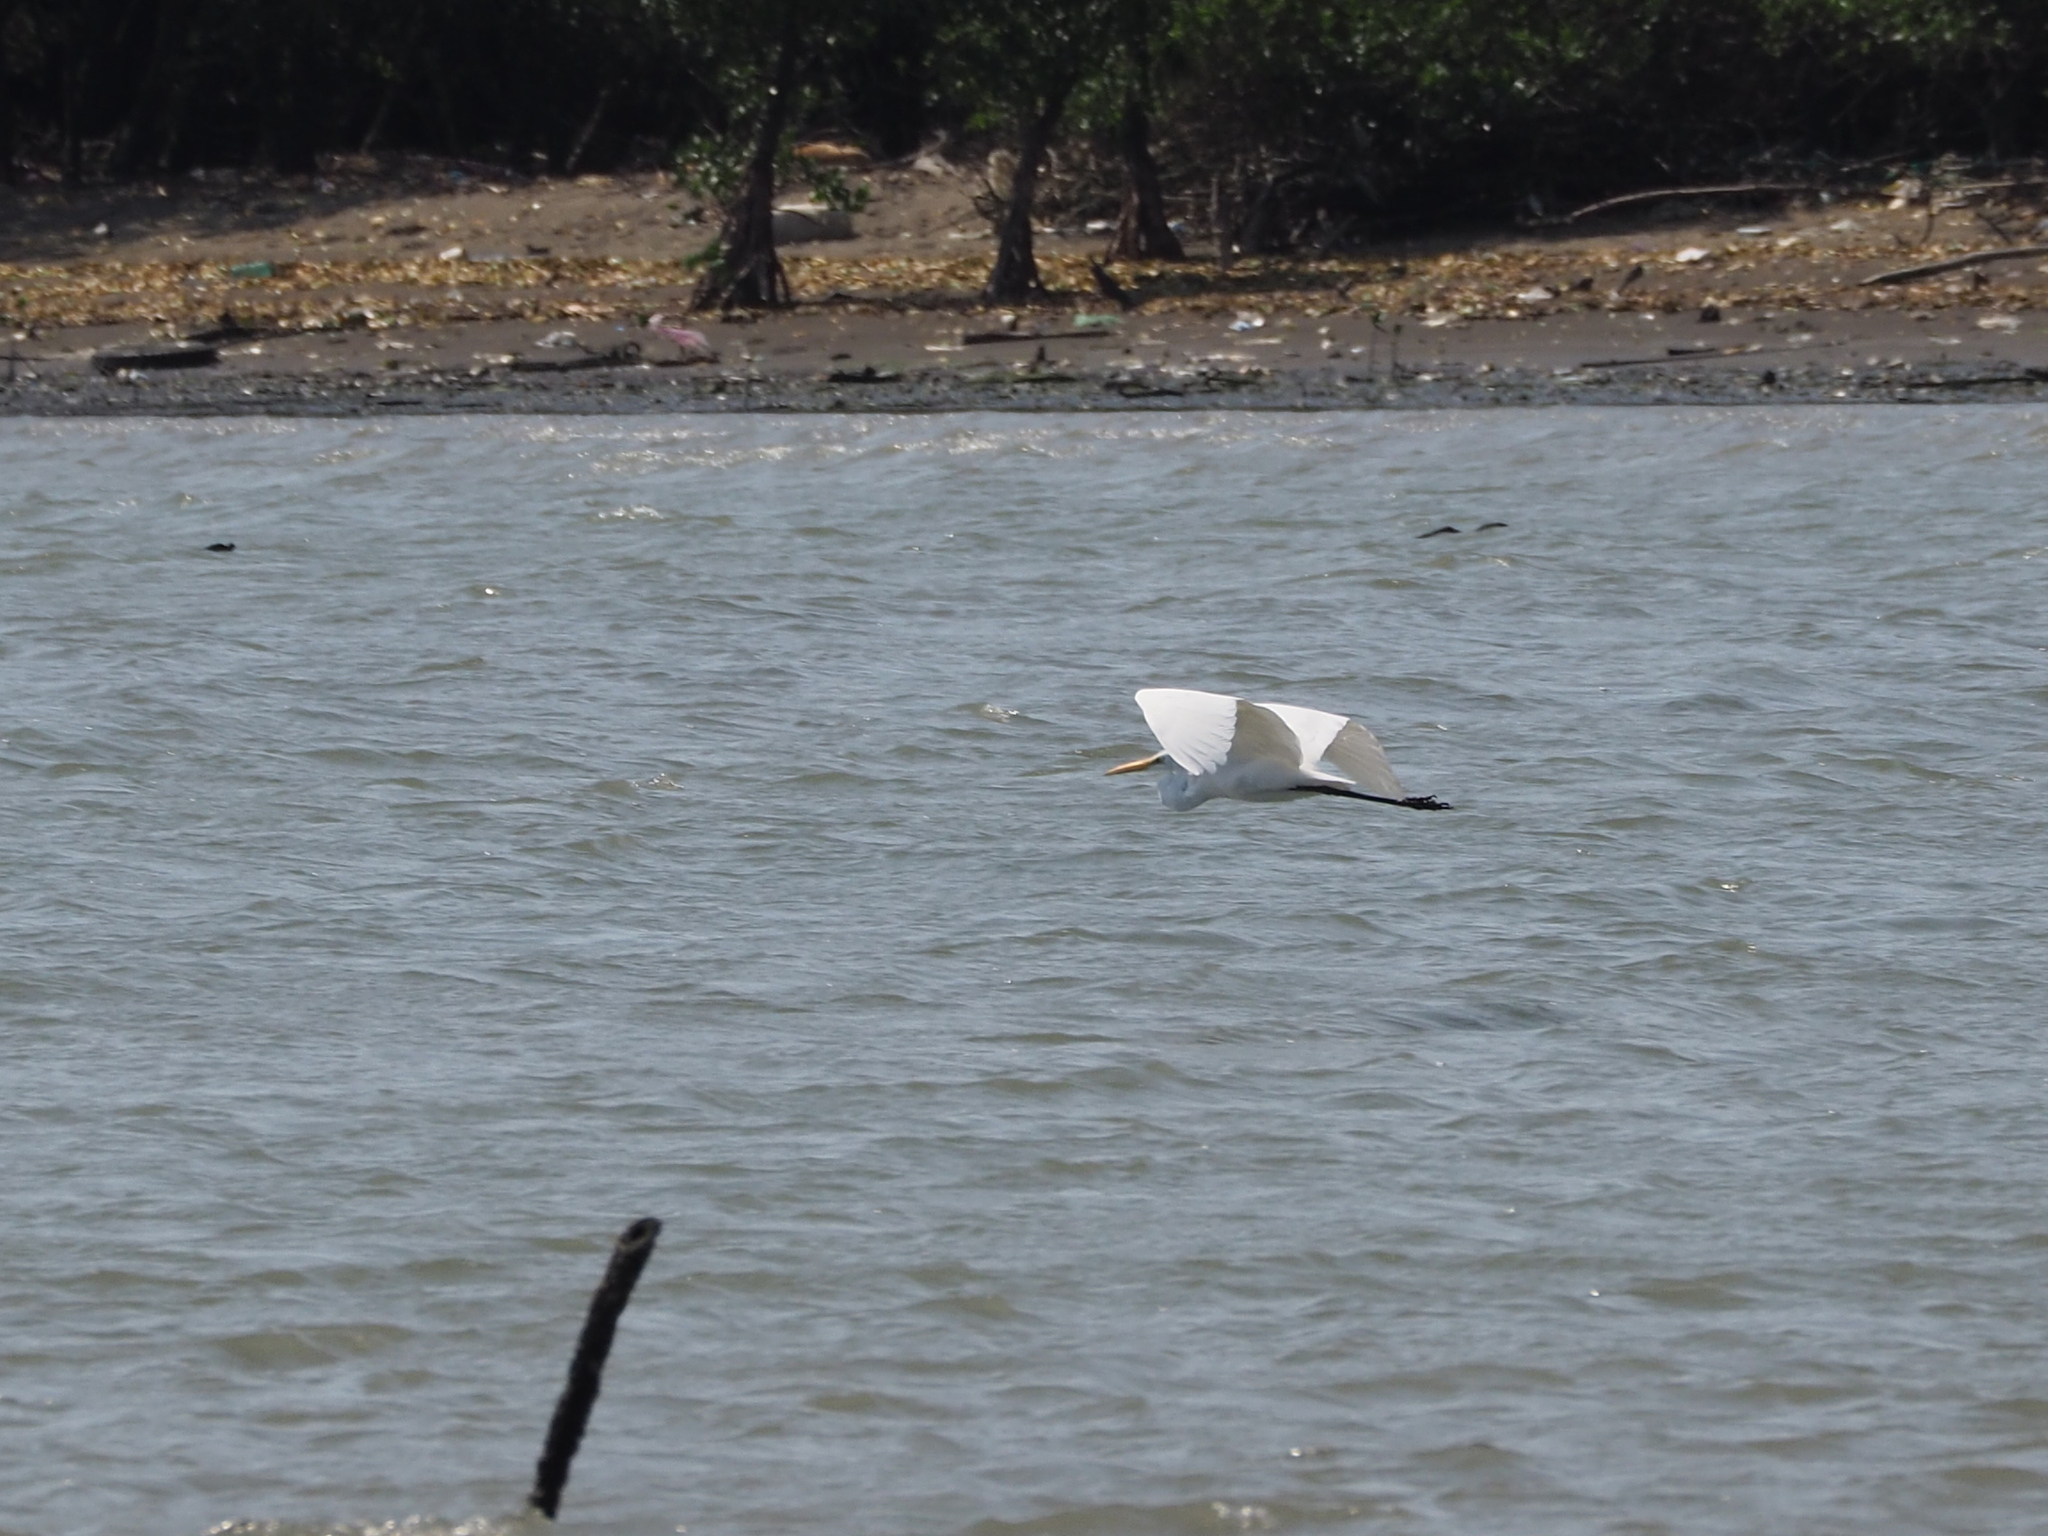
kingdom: Animalia
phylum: Chordata
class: Aves
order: Pelecaniformes
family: Ardeidae
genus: Ardea
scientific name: Ardea alba
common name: Great egret
